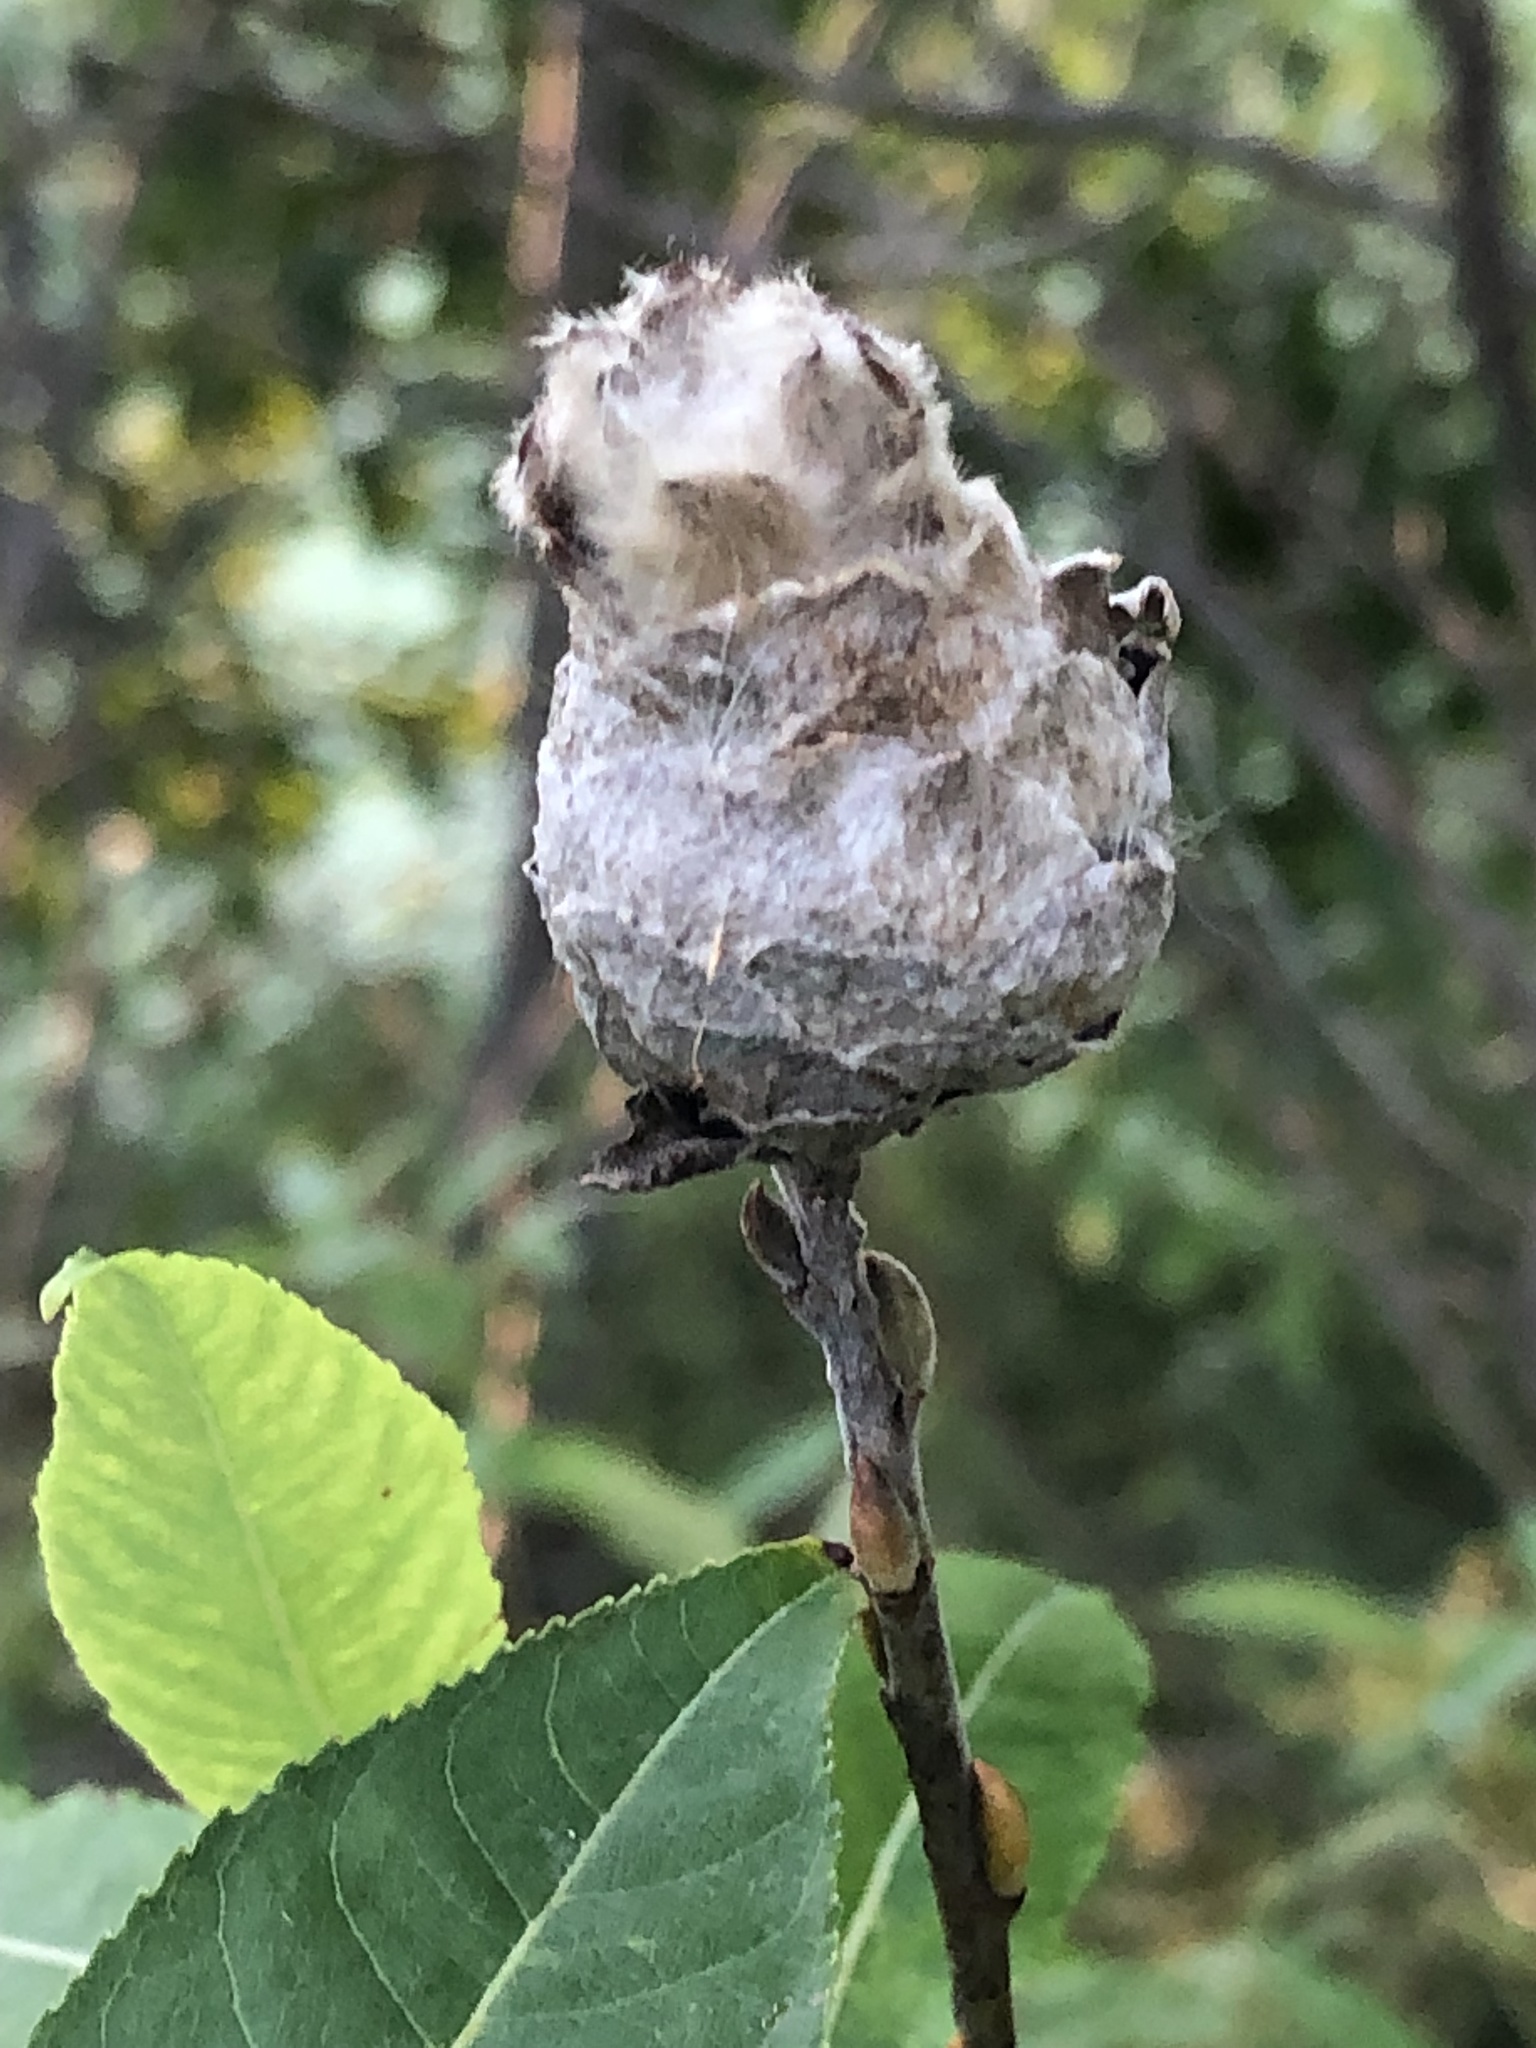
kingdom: Animalia
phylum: Arthropoda
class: Insecta
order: Diptera
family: Cecidomyiidae
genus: Rabdophaga
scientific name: Rabdophaga strobiloides
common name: Willow pinecone gall midge
